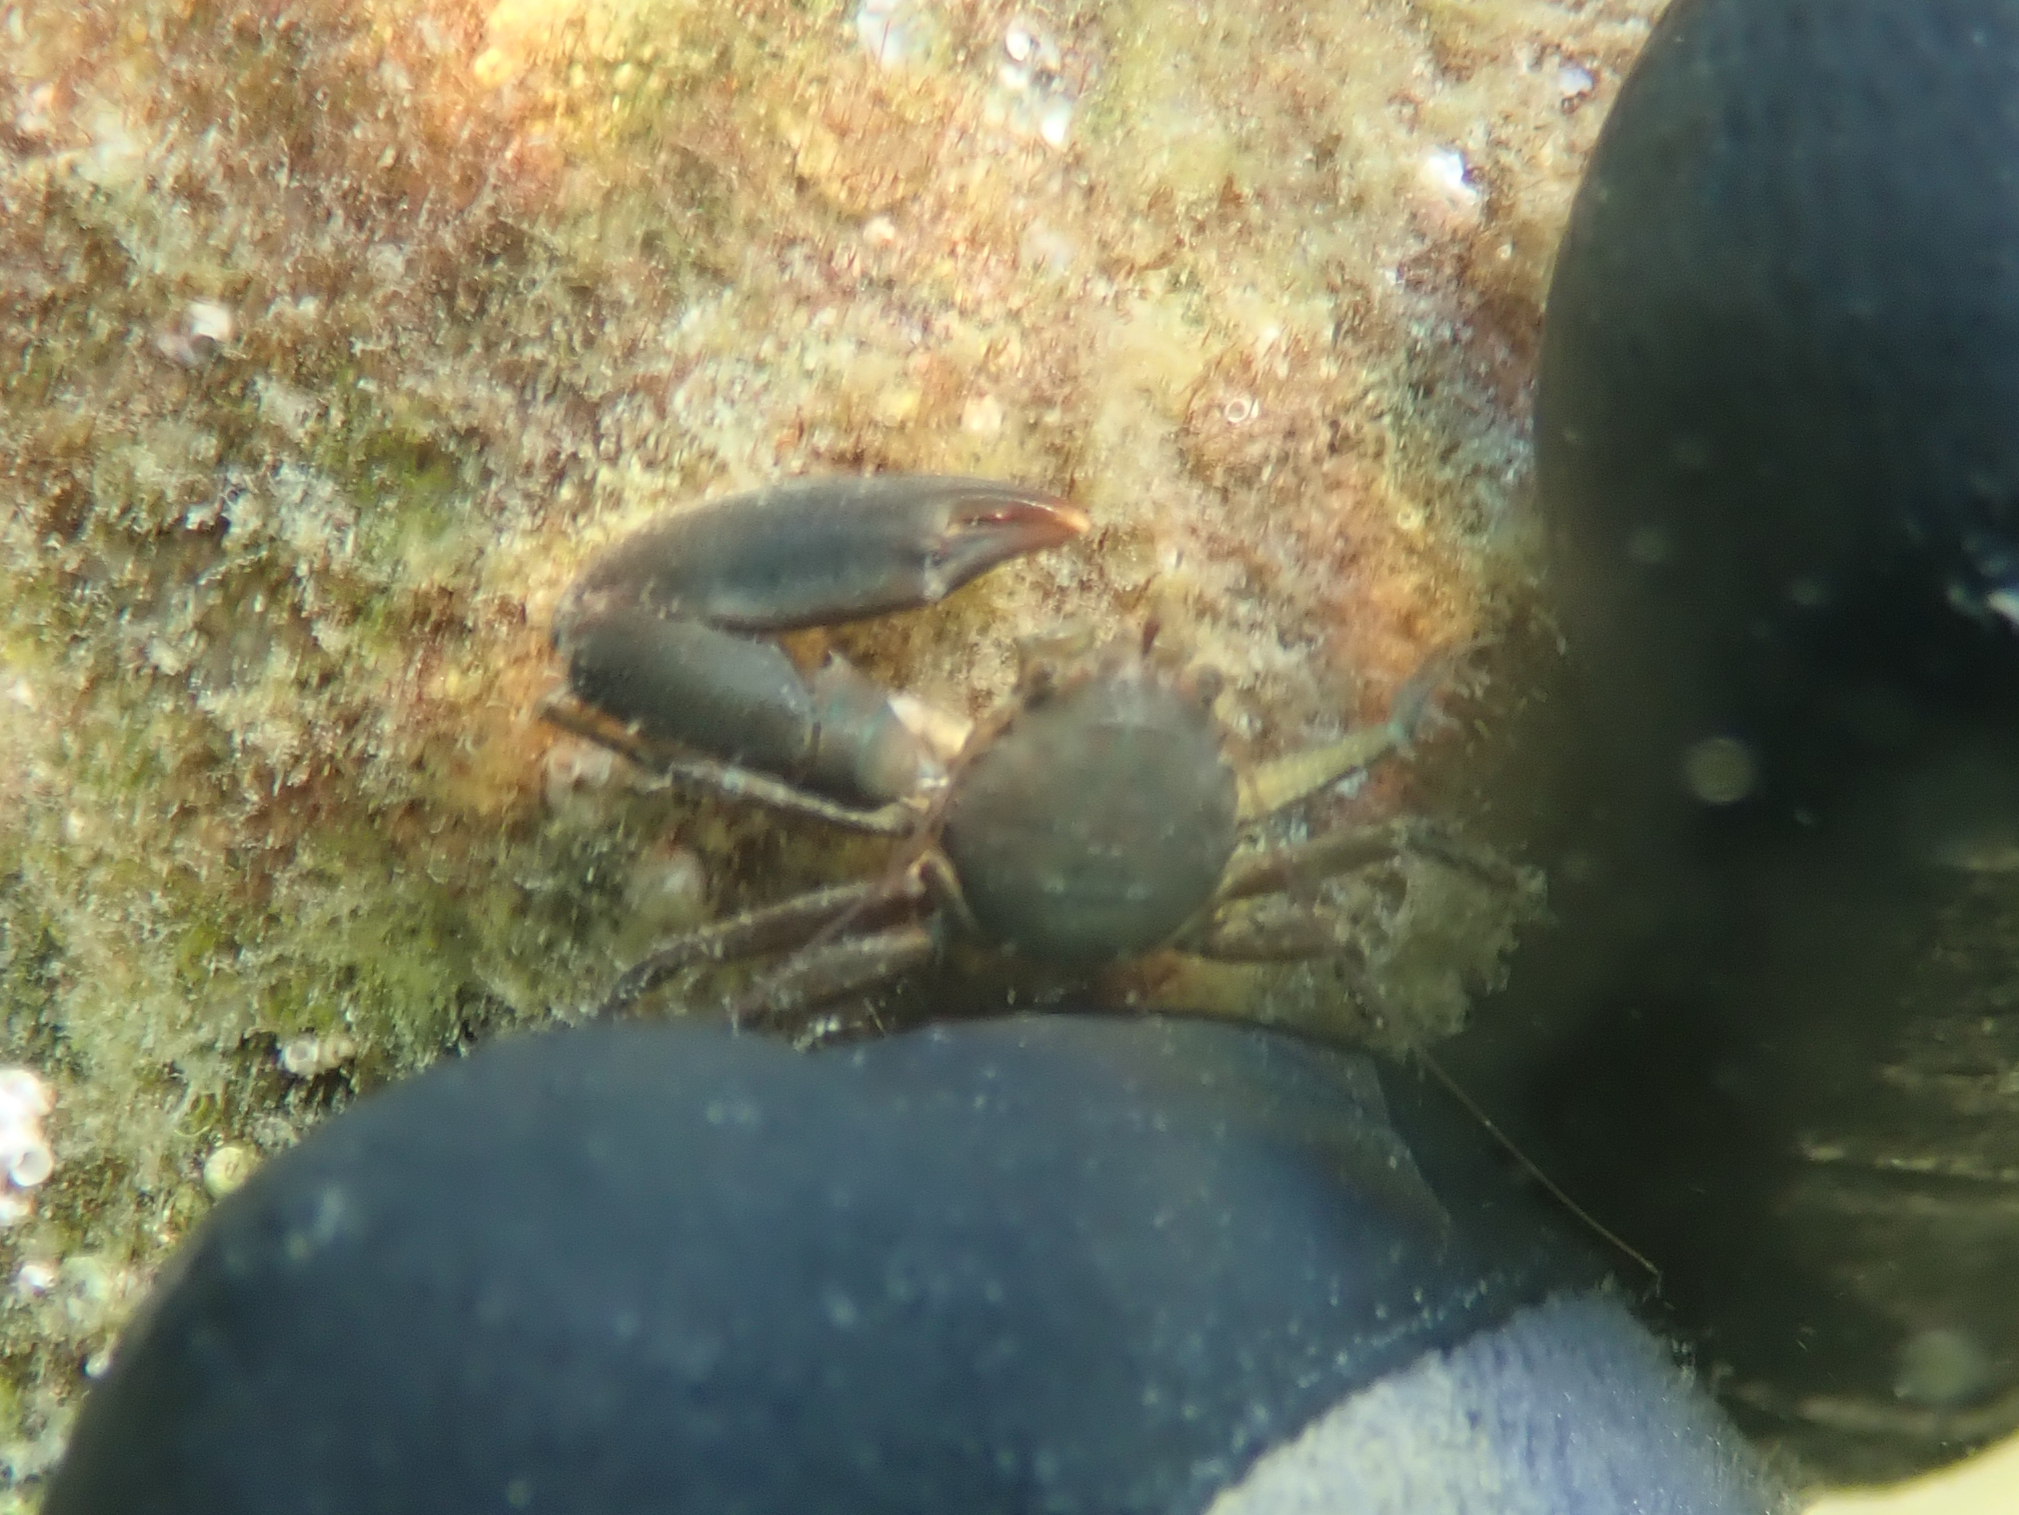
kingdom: Animalia
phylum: Arthropoda
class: Malacostraca
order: Decapoda
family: Porcellanidae
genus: Pisidia
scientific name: Pisidia longicornis
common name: Long clawed porcelain crab
